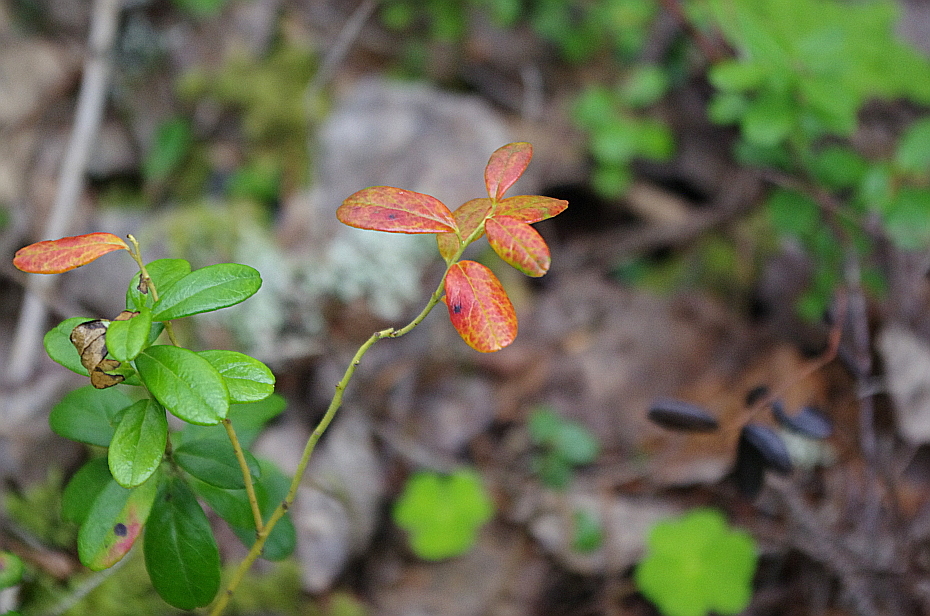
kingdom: Plantae
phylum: Tracheophyta
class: Magnoliopsida
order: Ericales
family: Ericaceae
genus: Vaccinium
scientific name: Vaccinium vitis-idaea
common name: Cowberry
